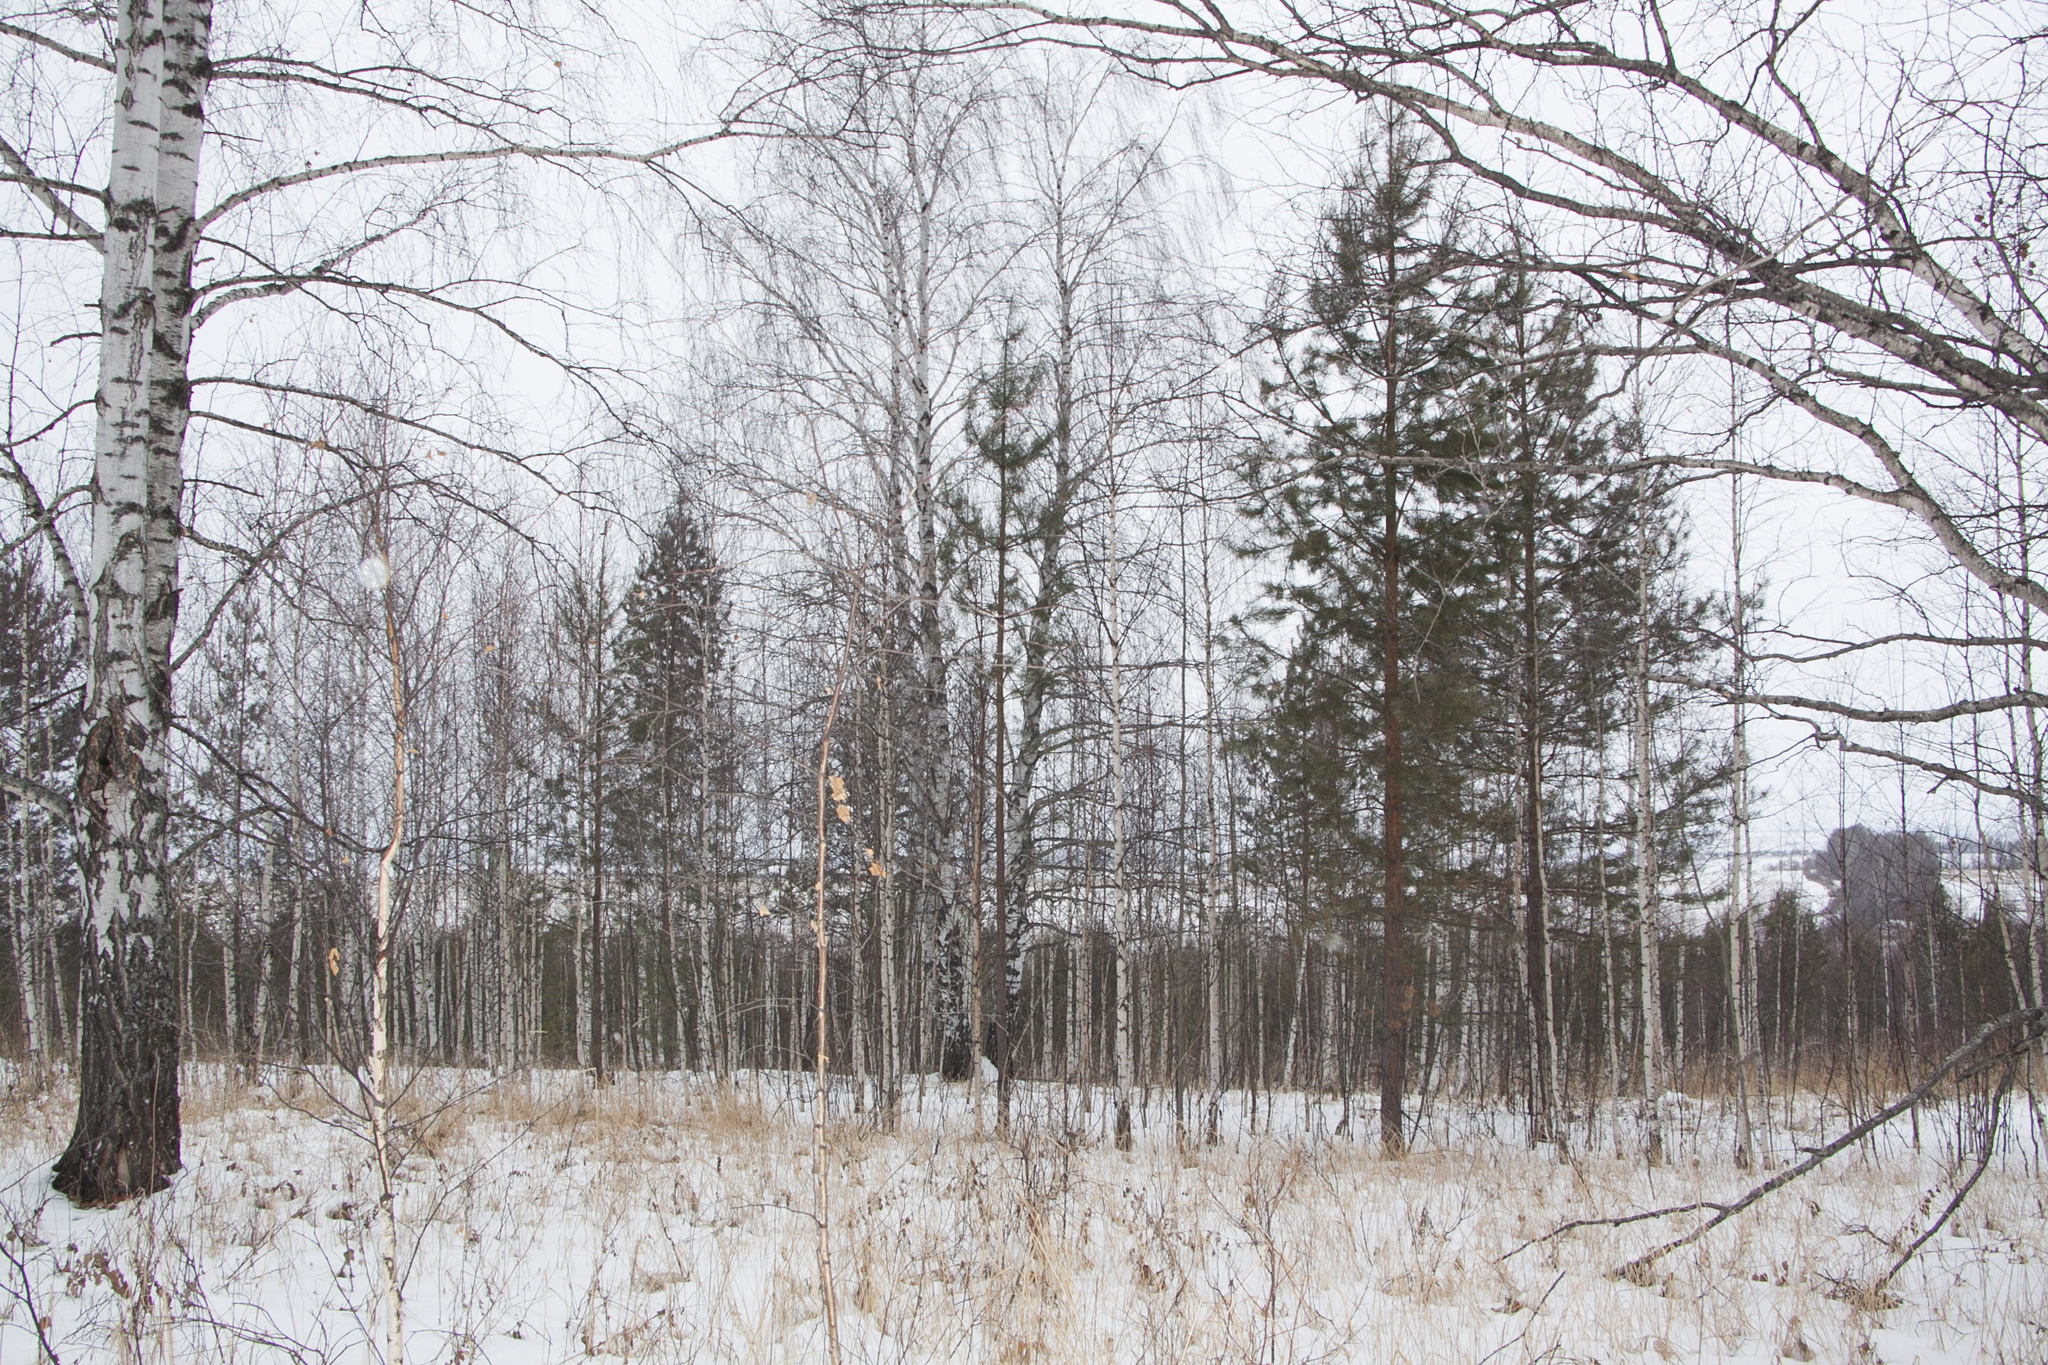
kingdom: Plantae
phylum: Tracheophyta
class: Magnoliopsida
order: Fagales
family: Betulaceae
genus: Betula
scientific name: Betula pendula
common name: Silver birch
